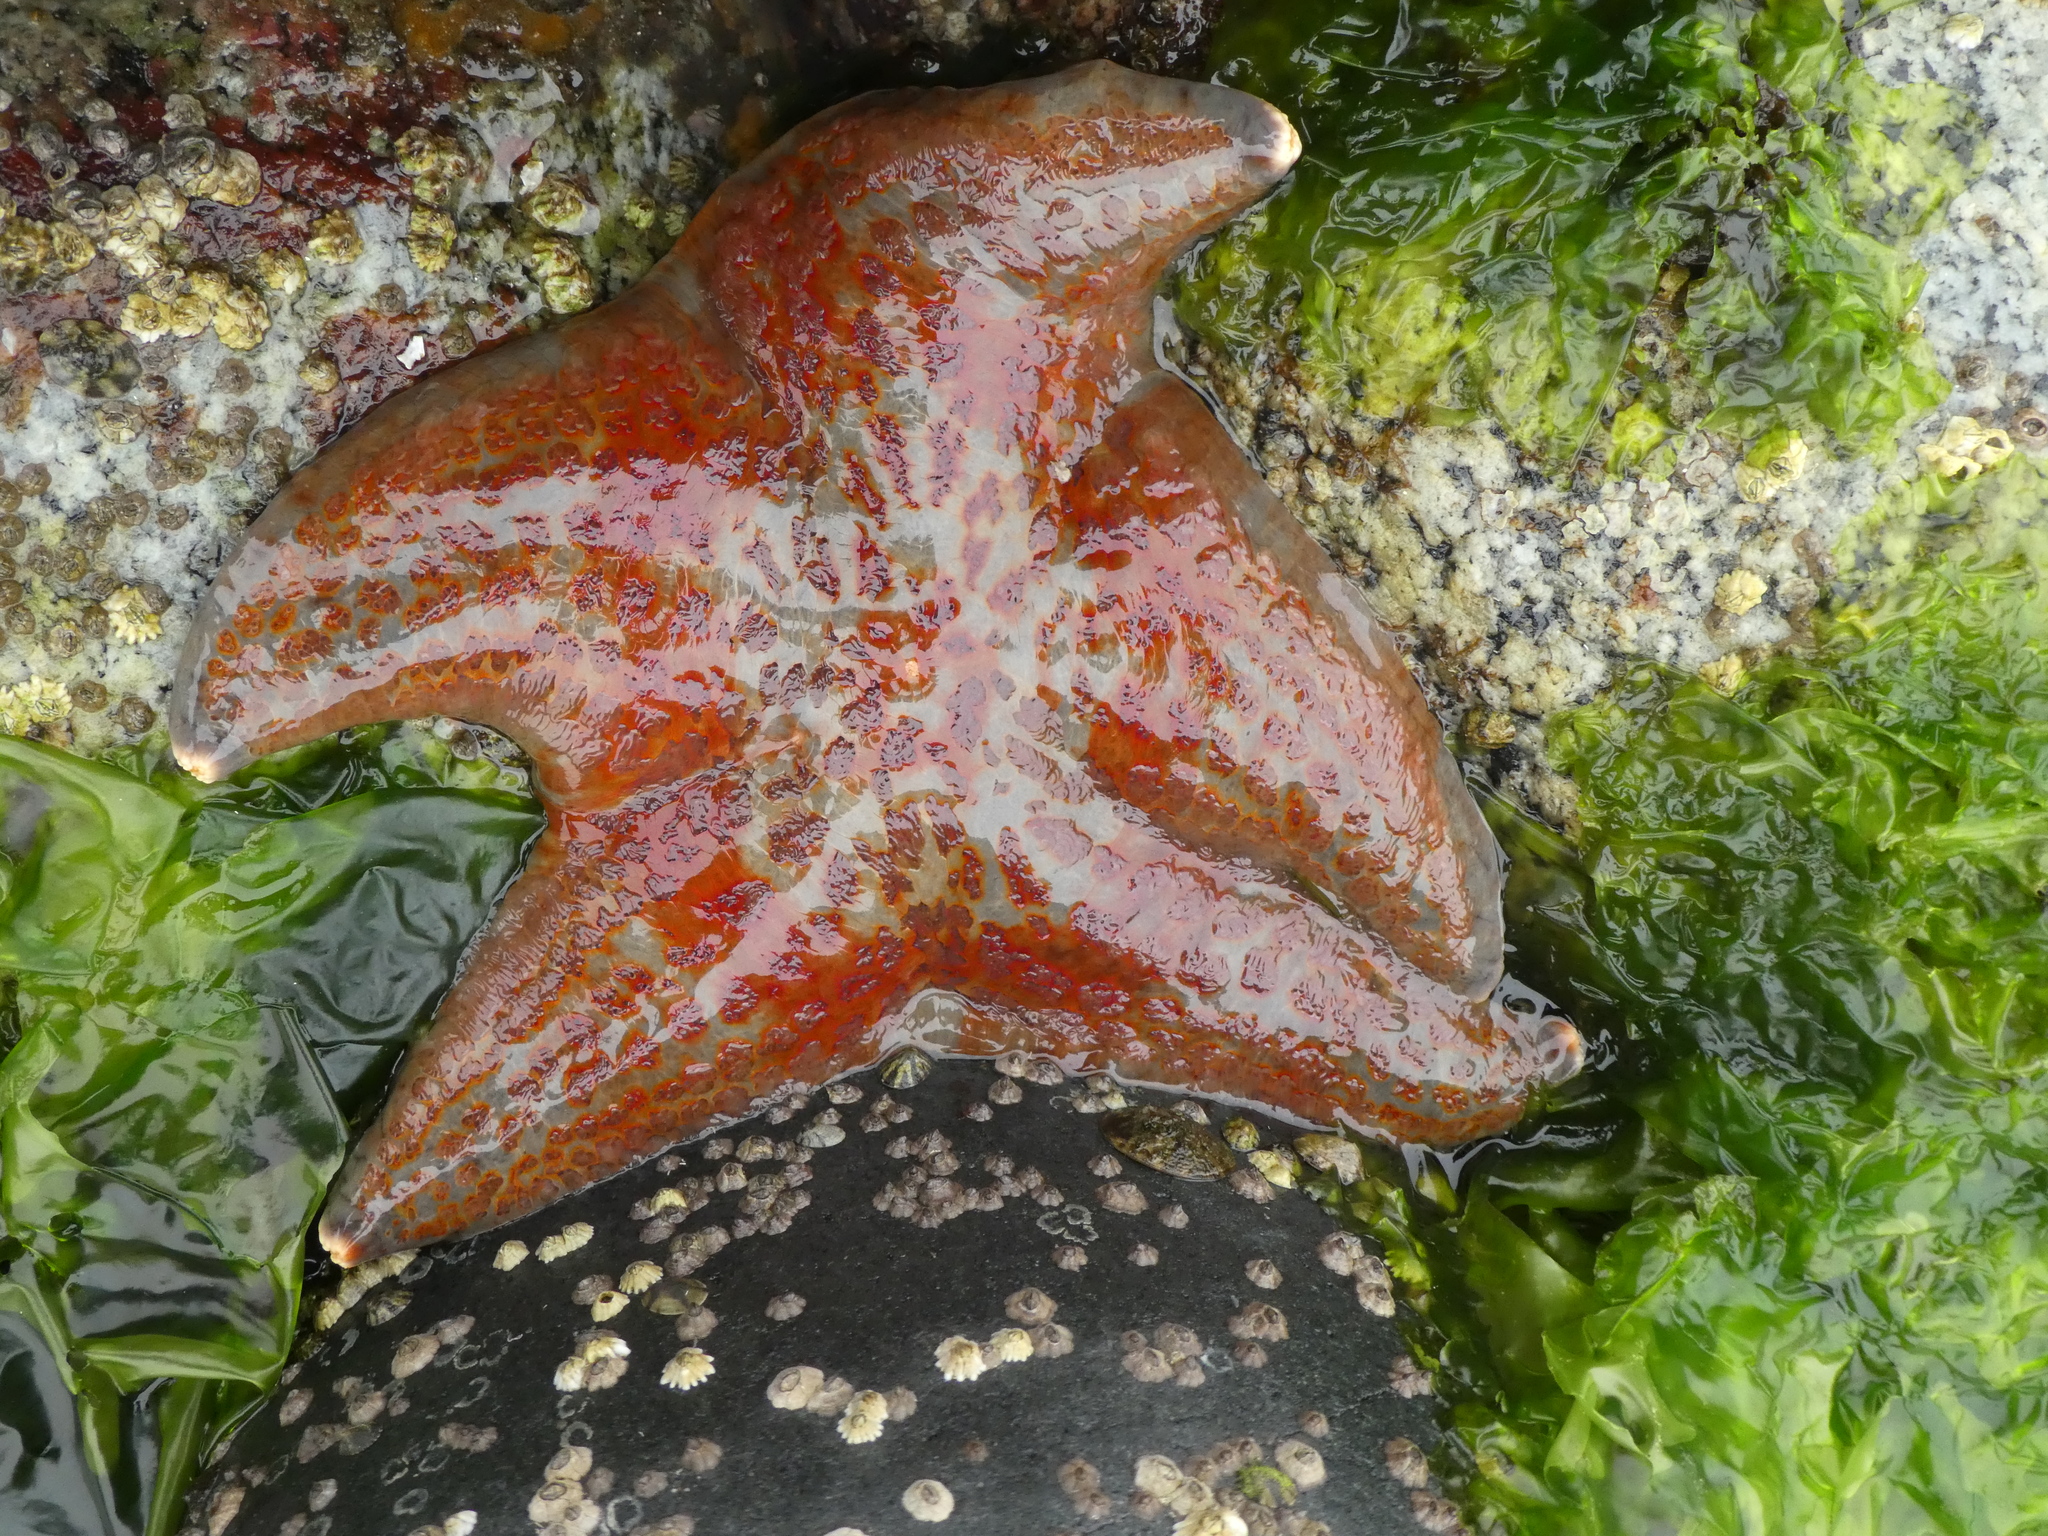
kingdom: Animalia
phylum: Echinodermata
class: Asteroidea
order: Valvatida
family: Asteropseidae
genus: Dermasterias
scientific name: Dermasterias imbricata
